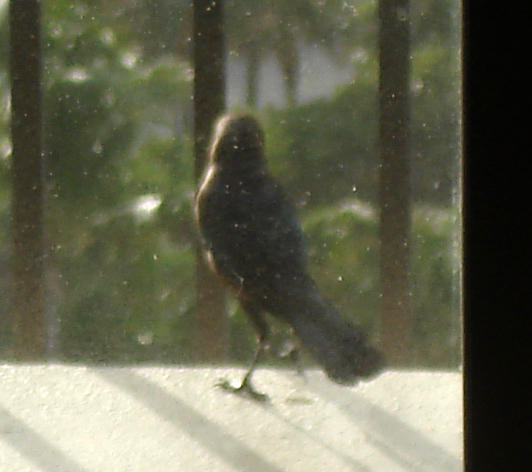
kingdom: Animalia
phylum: Chordata
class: Aves
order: Passeriformes
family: Icteridae
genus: Quiscalus
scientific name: Quiscalus major
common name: Boat-tailed grackle
